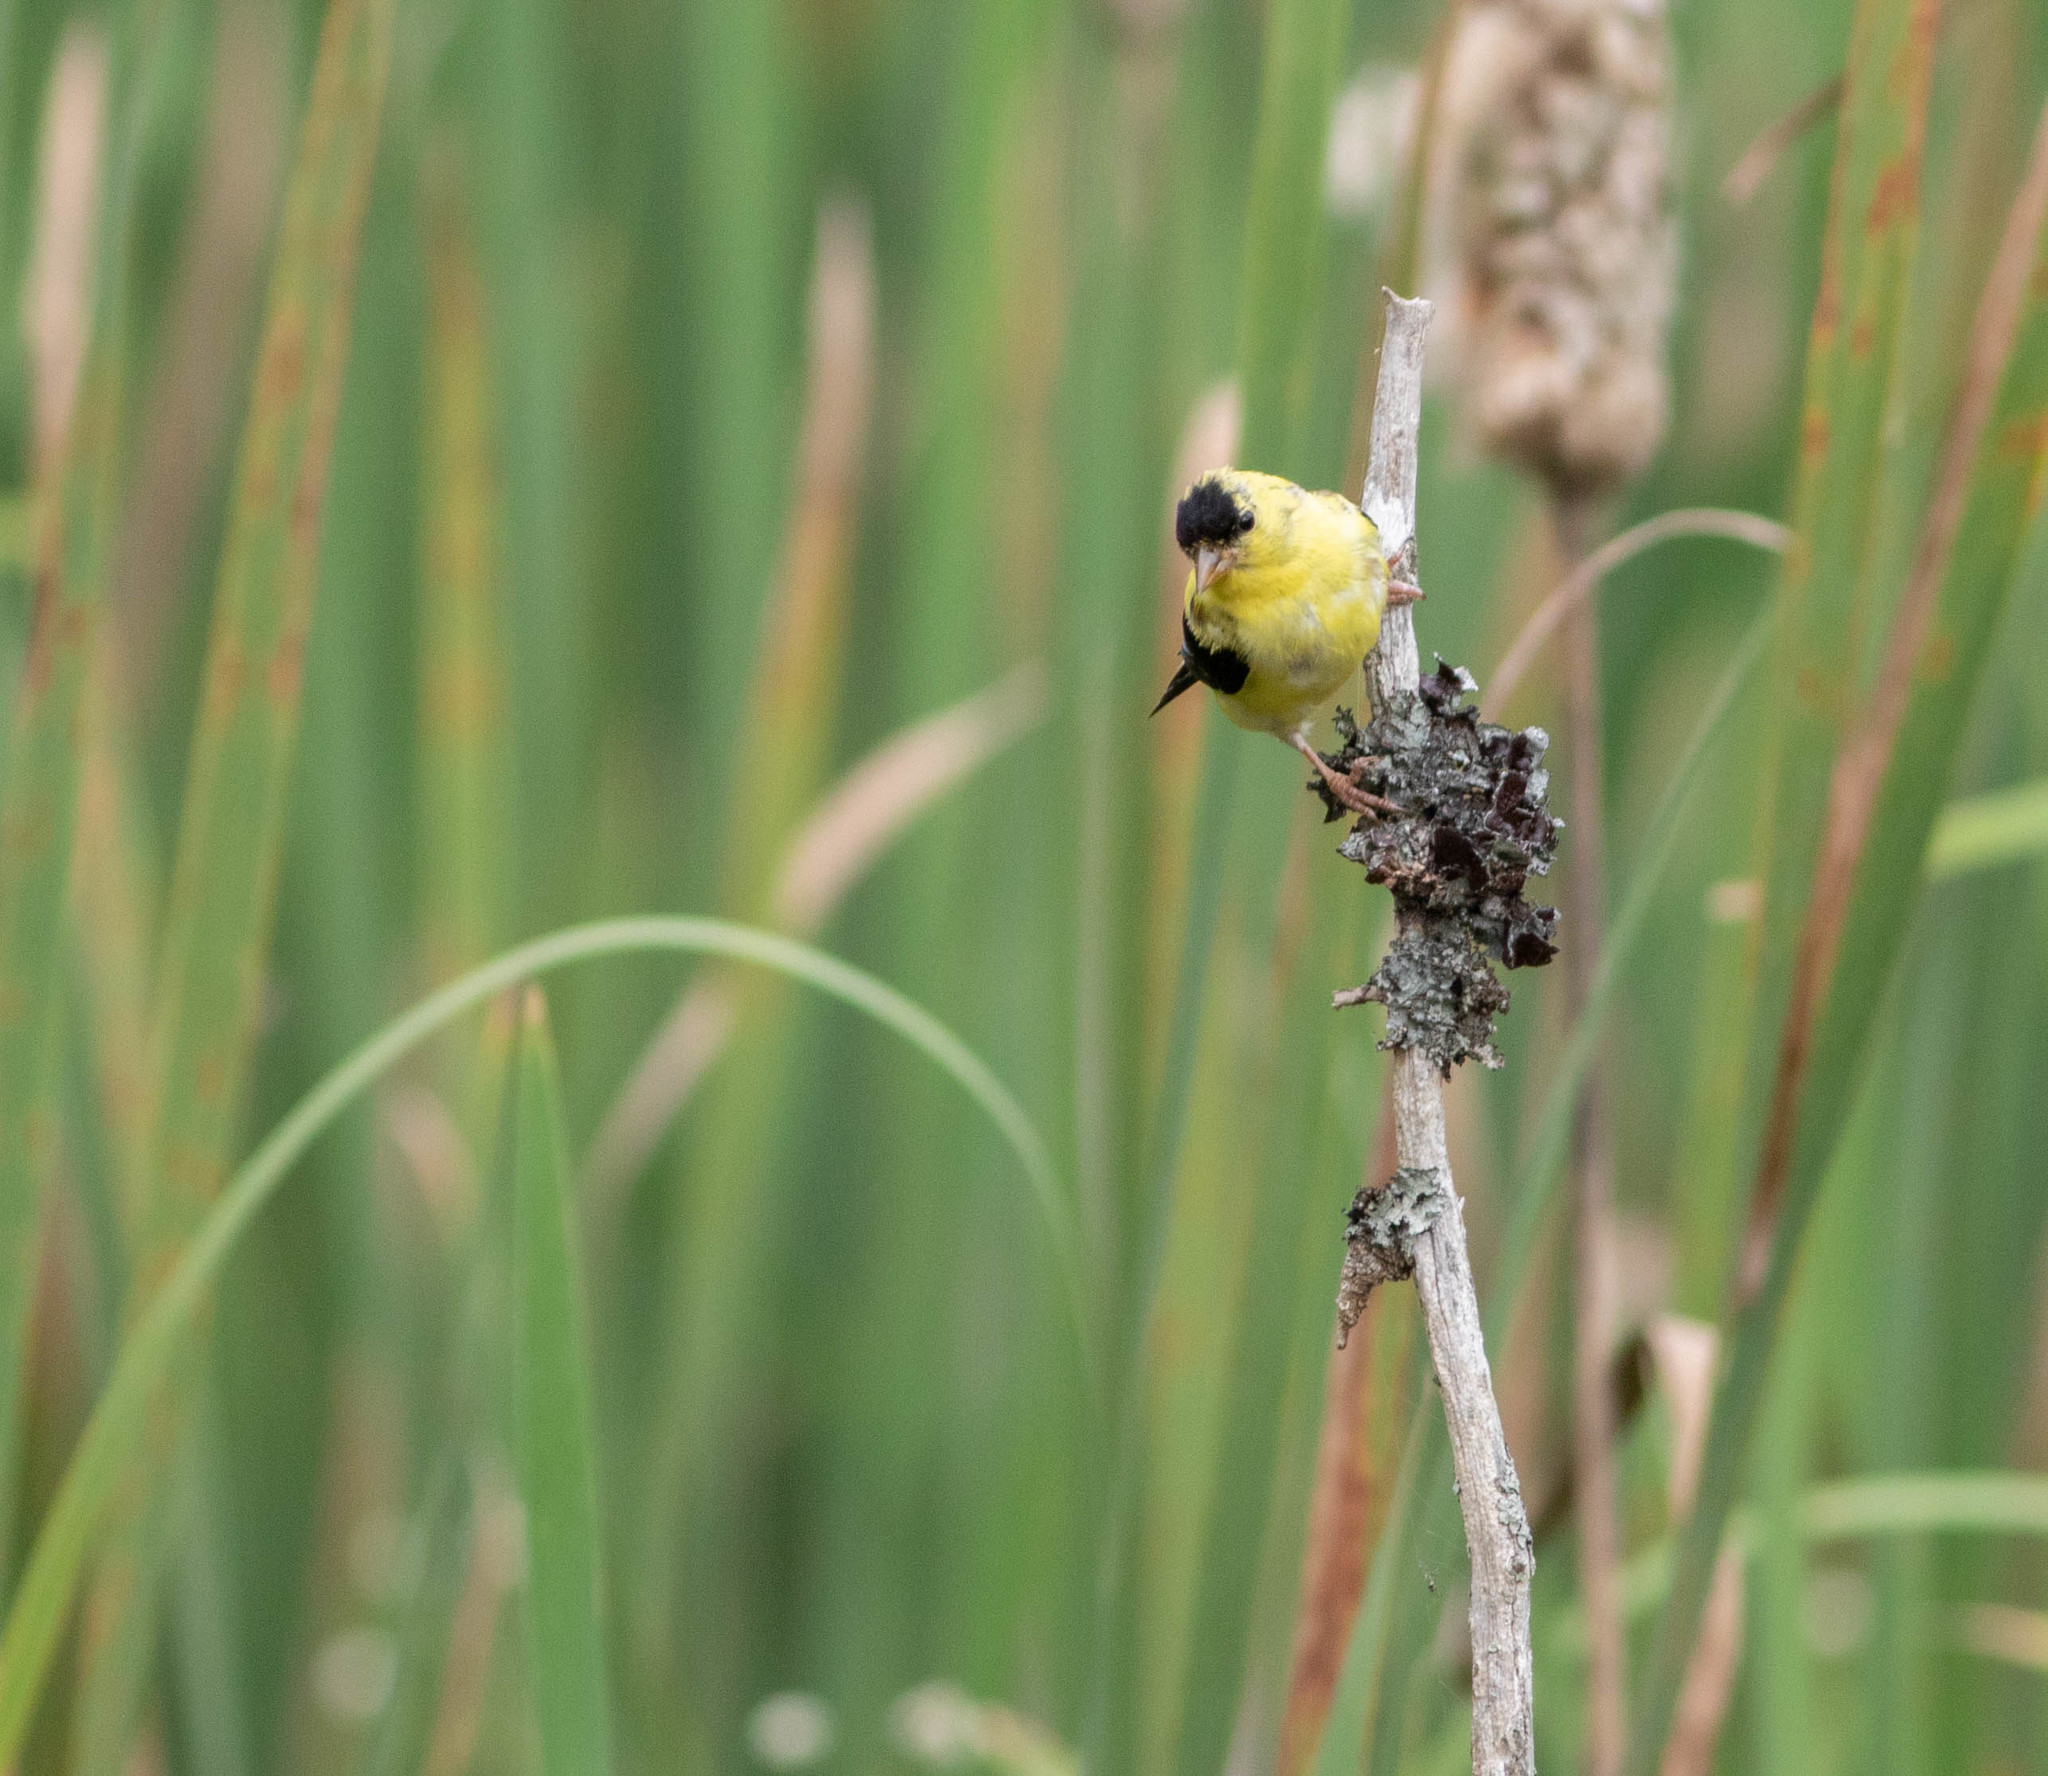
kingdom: Animalia
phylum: Chordata
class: Aves
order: Passeriformes
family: Fringillidae
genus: Spinus
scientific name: Spinus tristis
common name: American goldfinch
